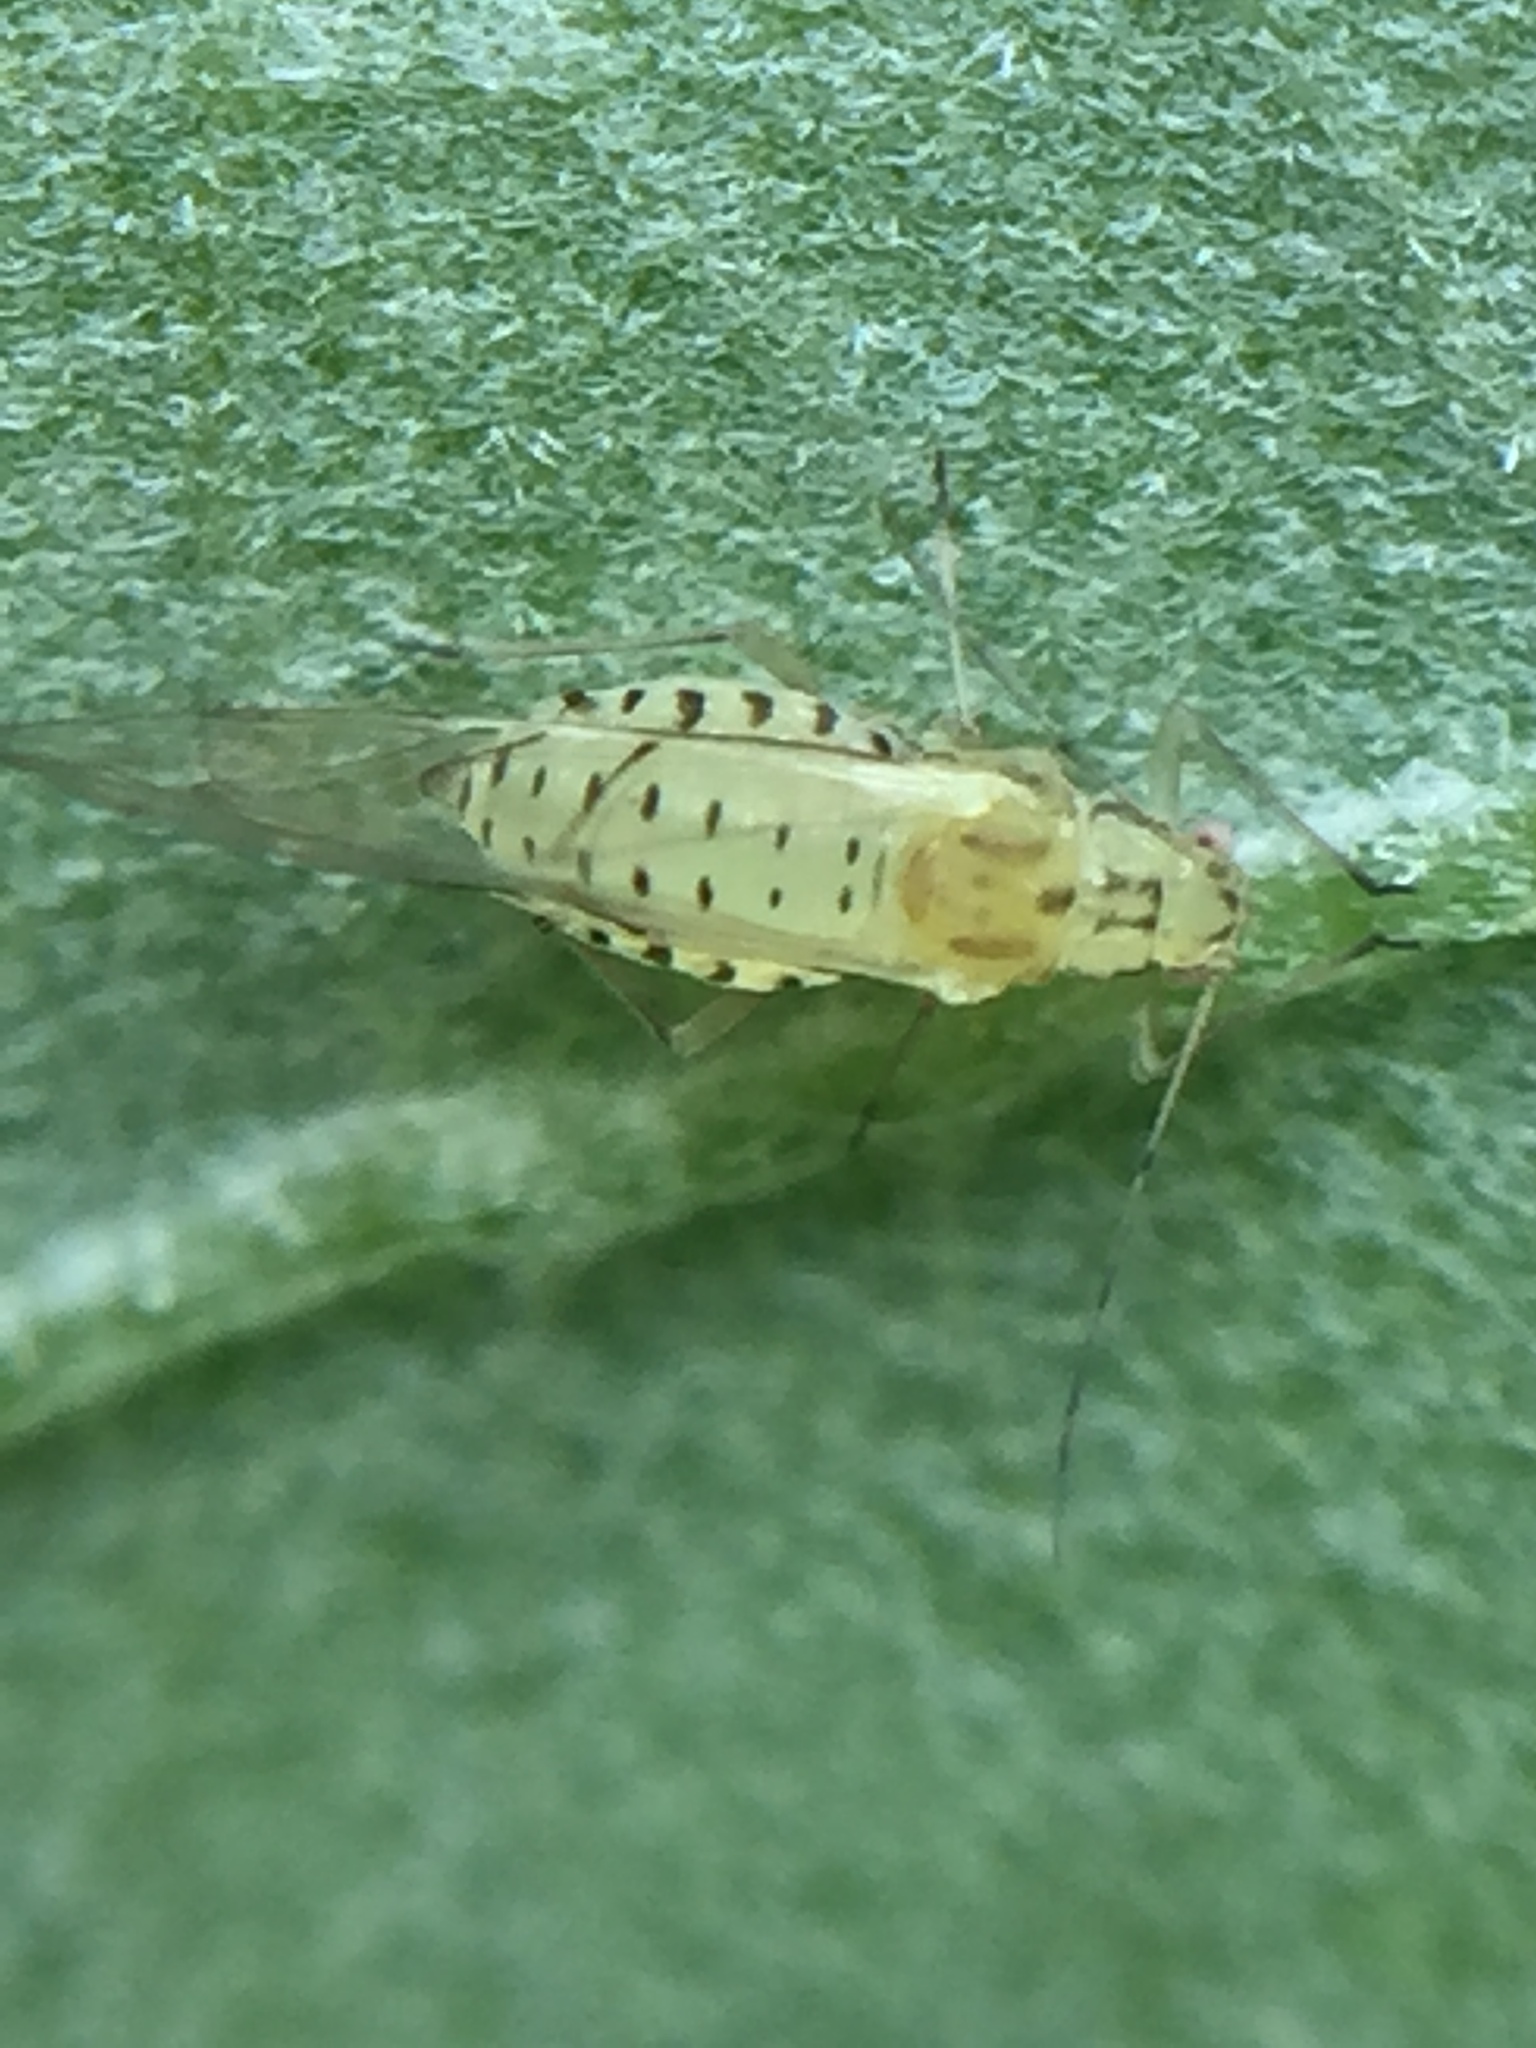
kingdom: Animalia
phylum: Arthropoda
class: Insecta
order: Hemiptera
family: Aphididae
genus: Myzocallis
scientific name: Myzocallis boerneri
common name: Turkey oak aphid
